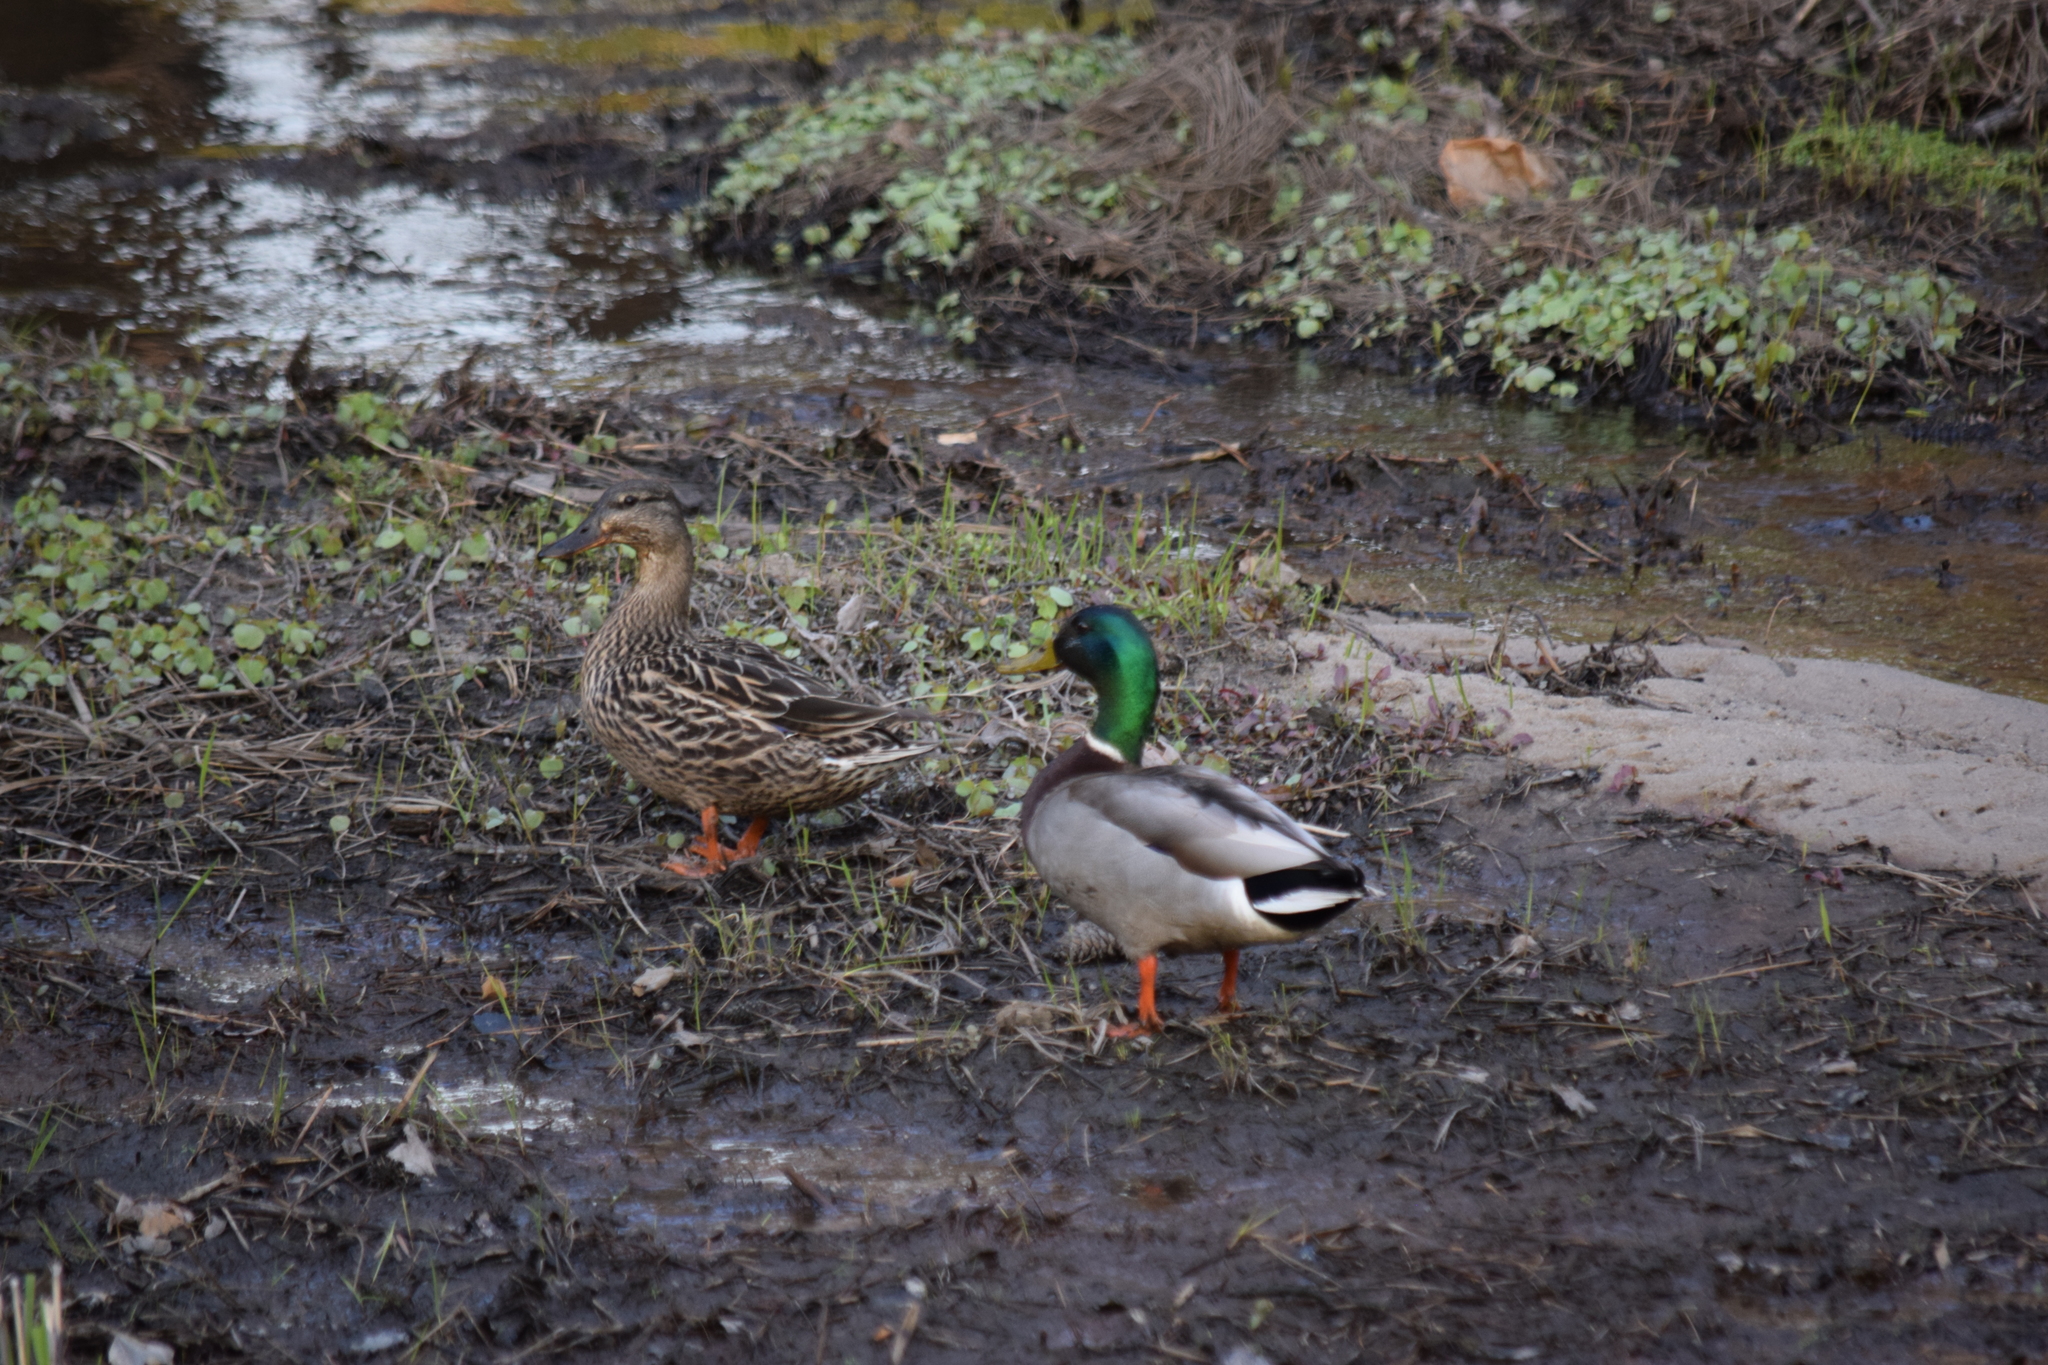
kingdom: Animalia
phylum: Chordata
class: Aves
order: Anseriformes
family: Anatidae
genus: Anas
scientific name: Anas platyrhynchos
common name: Mallard
